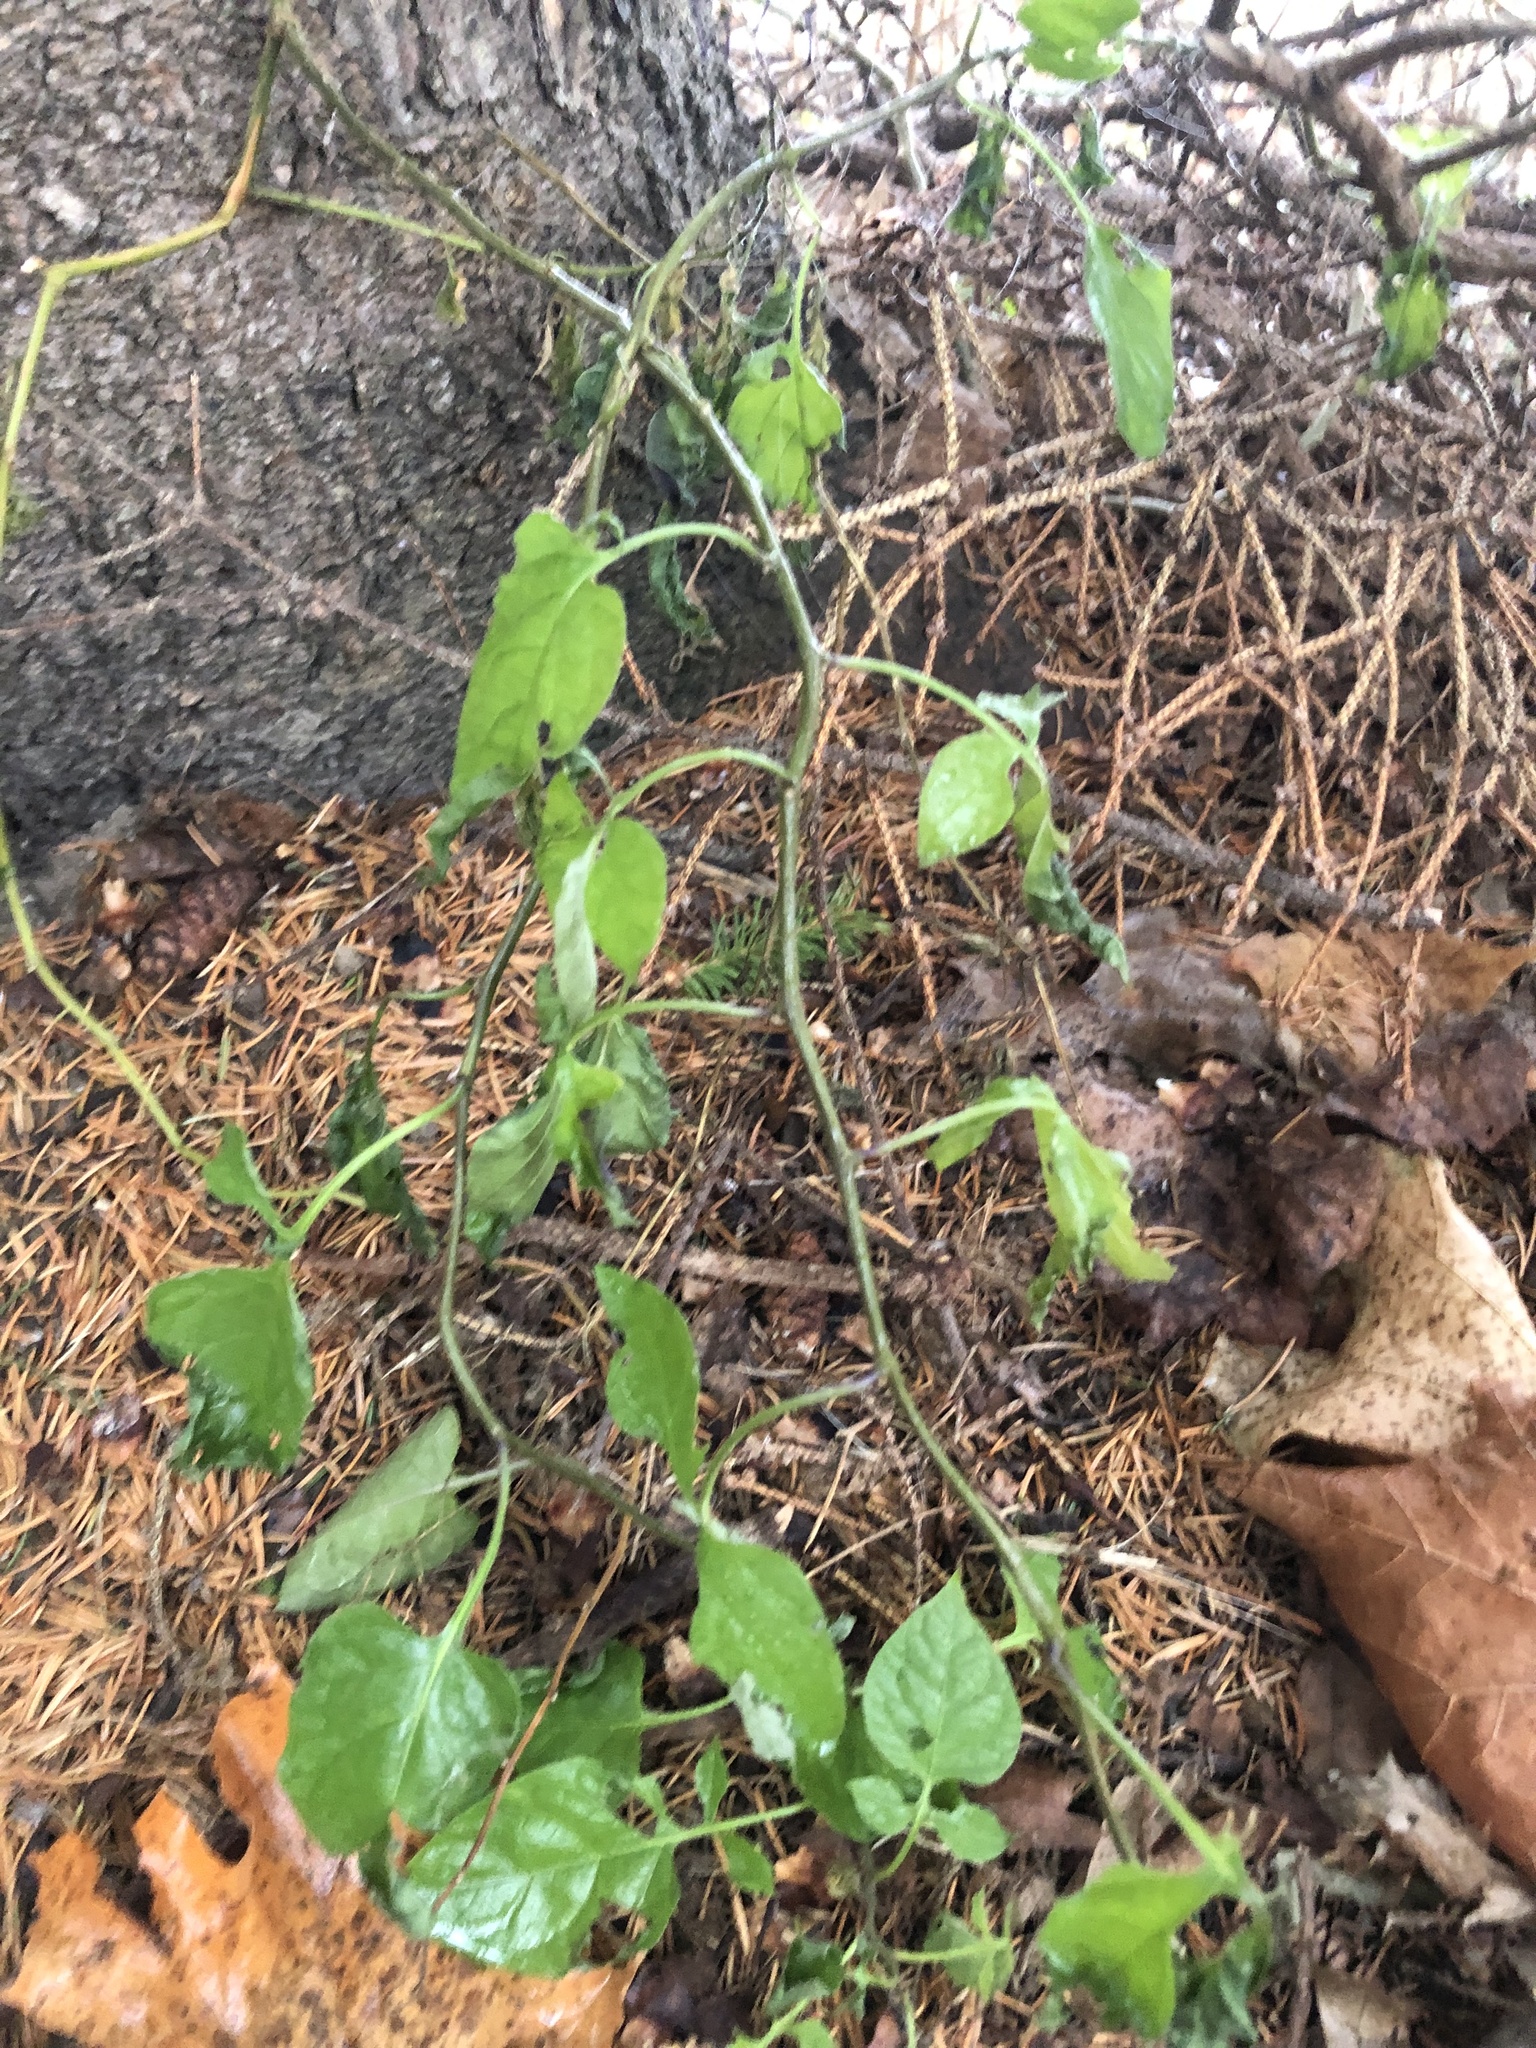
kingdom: Plantae
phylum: Tracheophyta
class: Magnoliopsida
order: Solanales
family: Solanaceae
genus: Solanum
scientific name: Solanum dulcamara
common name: Climbing nightshade
